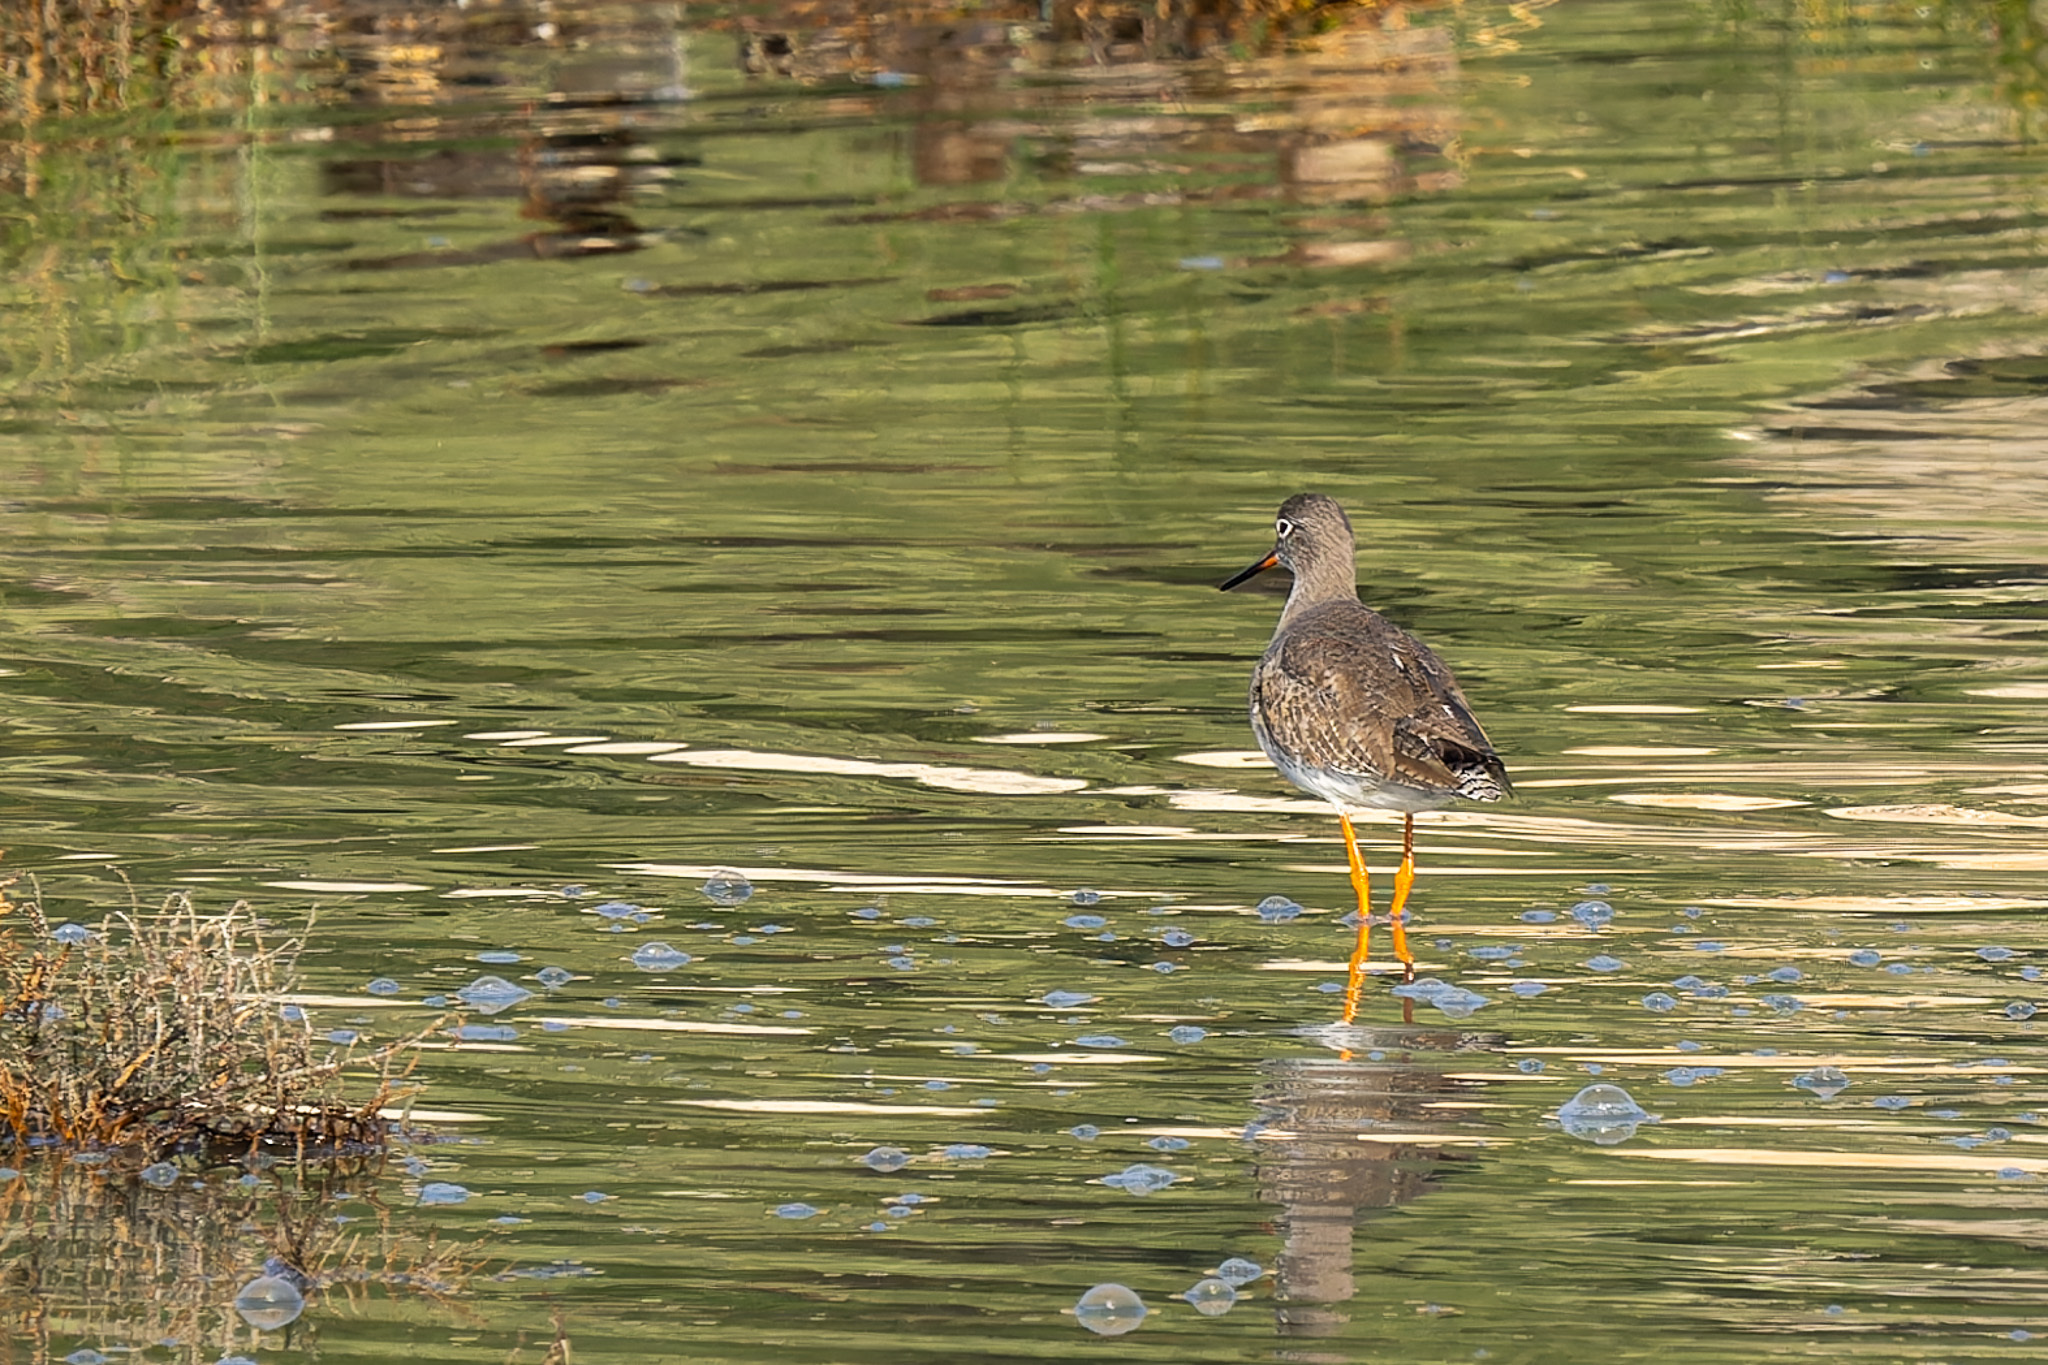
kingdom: Animalia
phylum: Chordata
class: Aves
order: Charadriiformes
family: Scolopacidae
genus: Tringa
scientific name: Tringa totanus
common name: Common redshank
